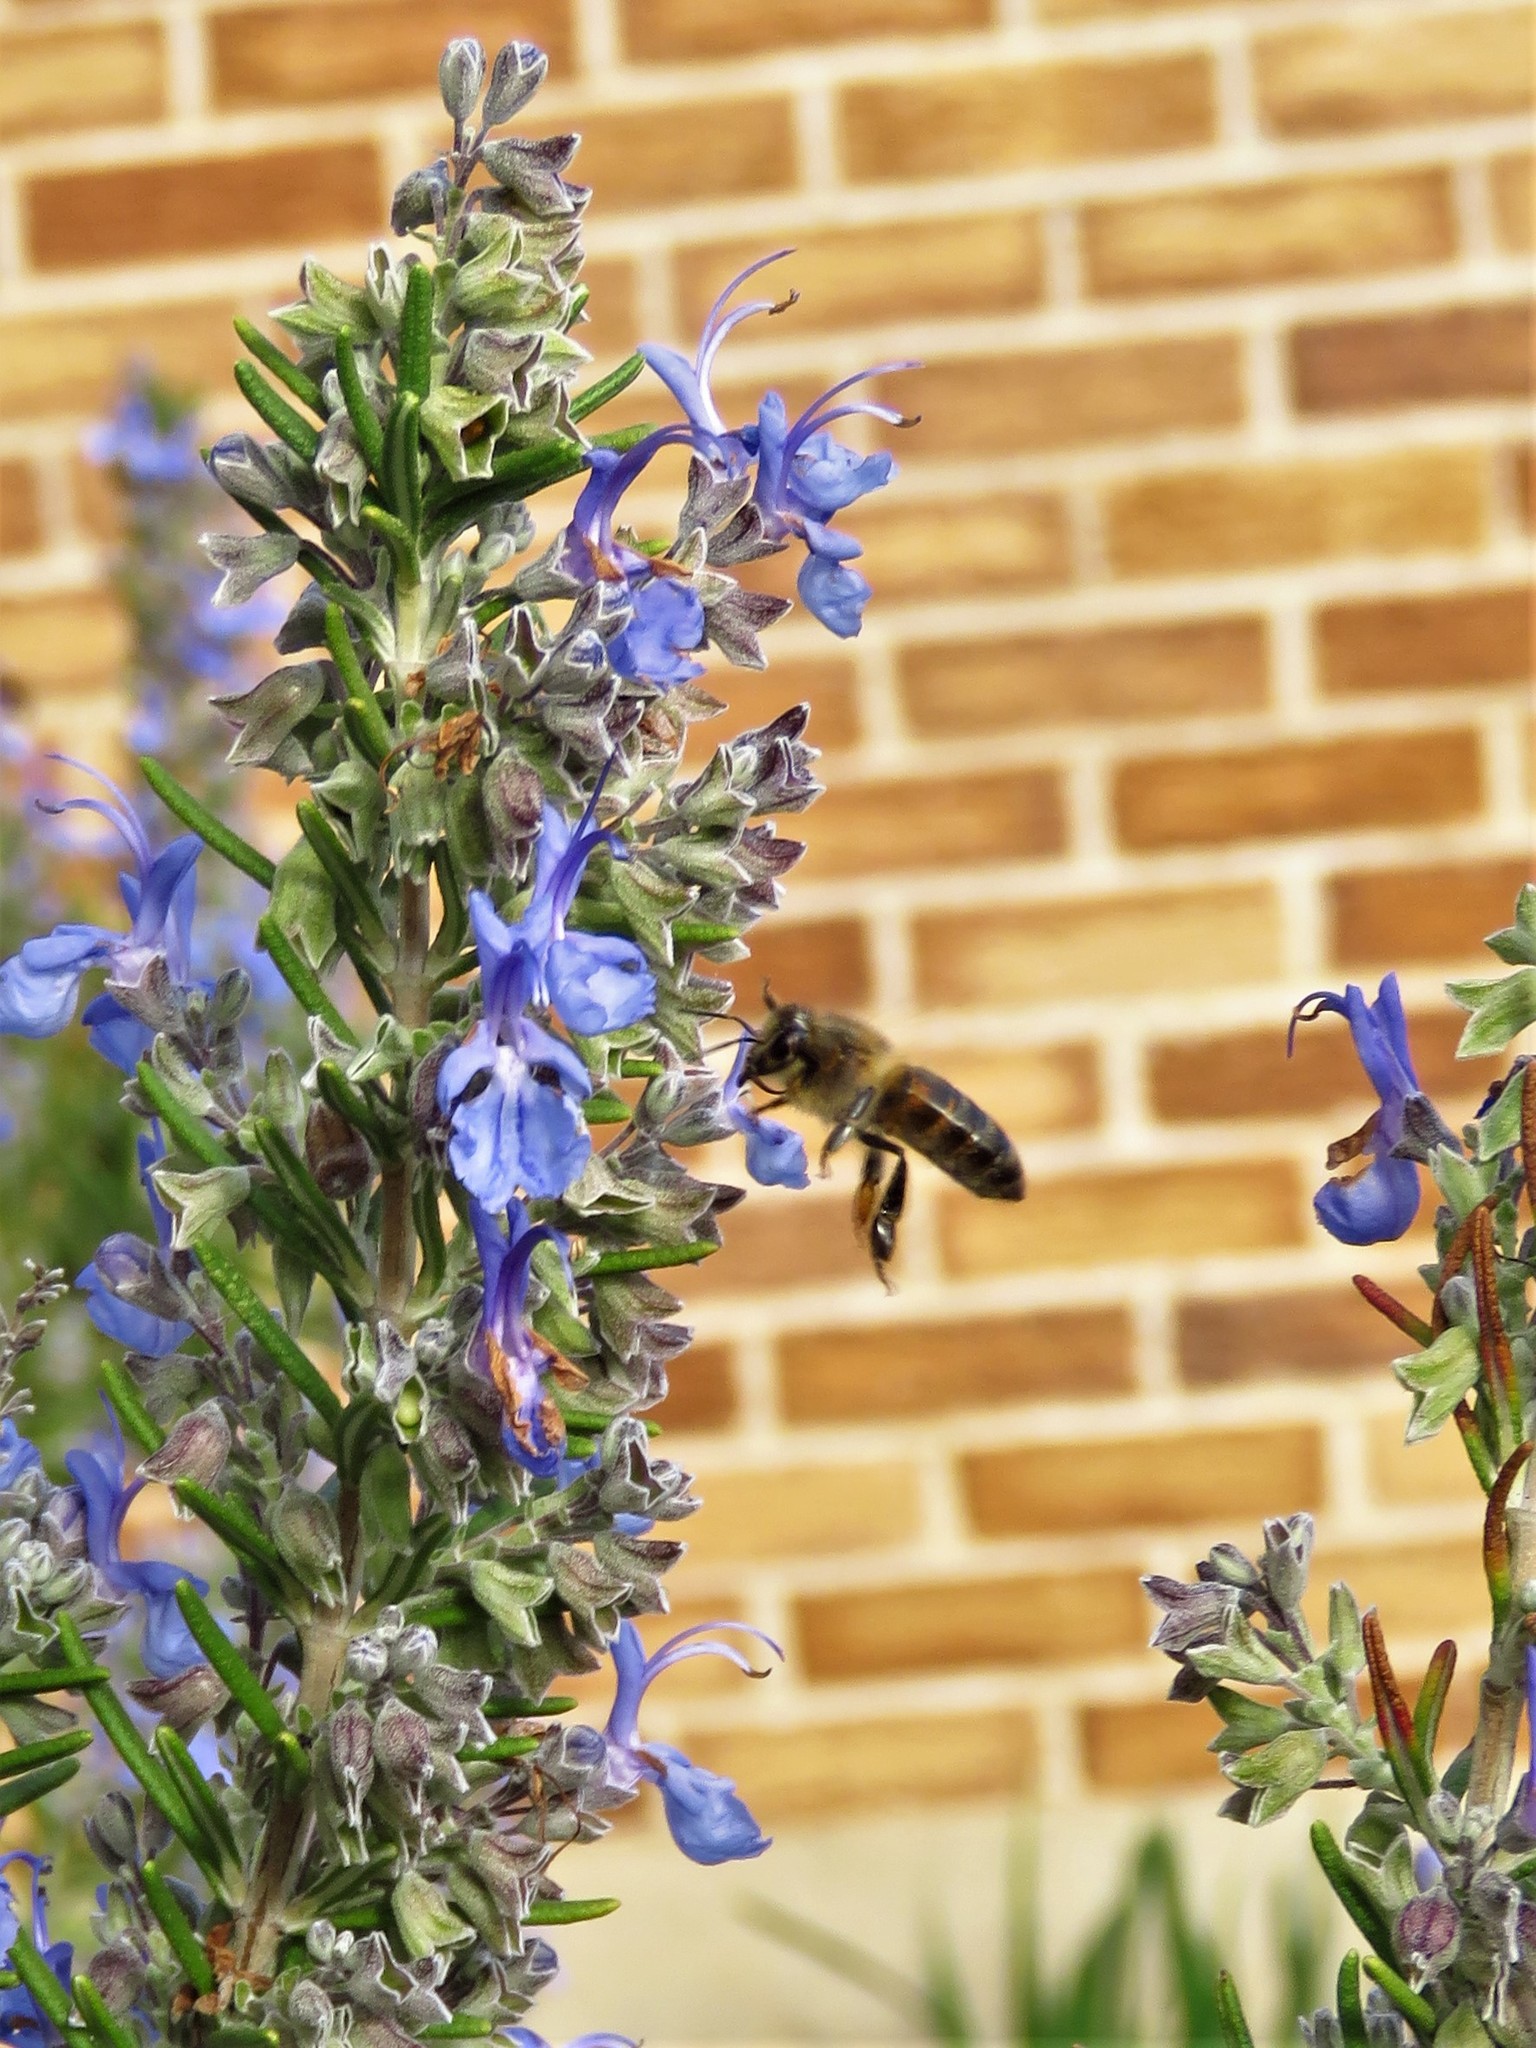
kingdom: Animalia
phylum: Arthropoda
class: Insecta
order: Hymenoptera
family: Apidae
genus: Apis
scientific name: Apis mellifera
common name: Honey bee
